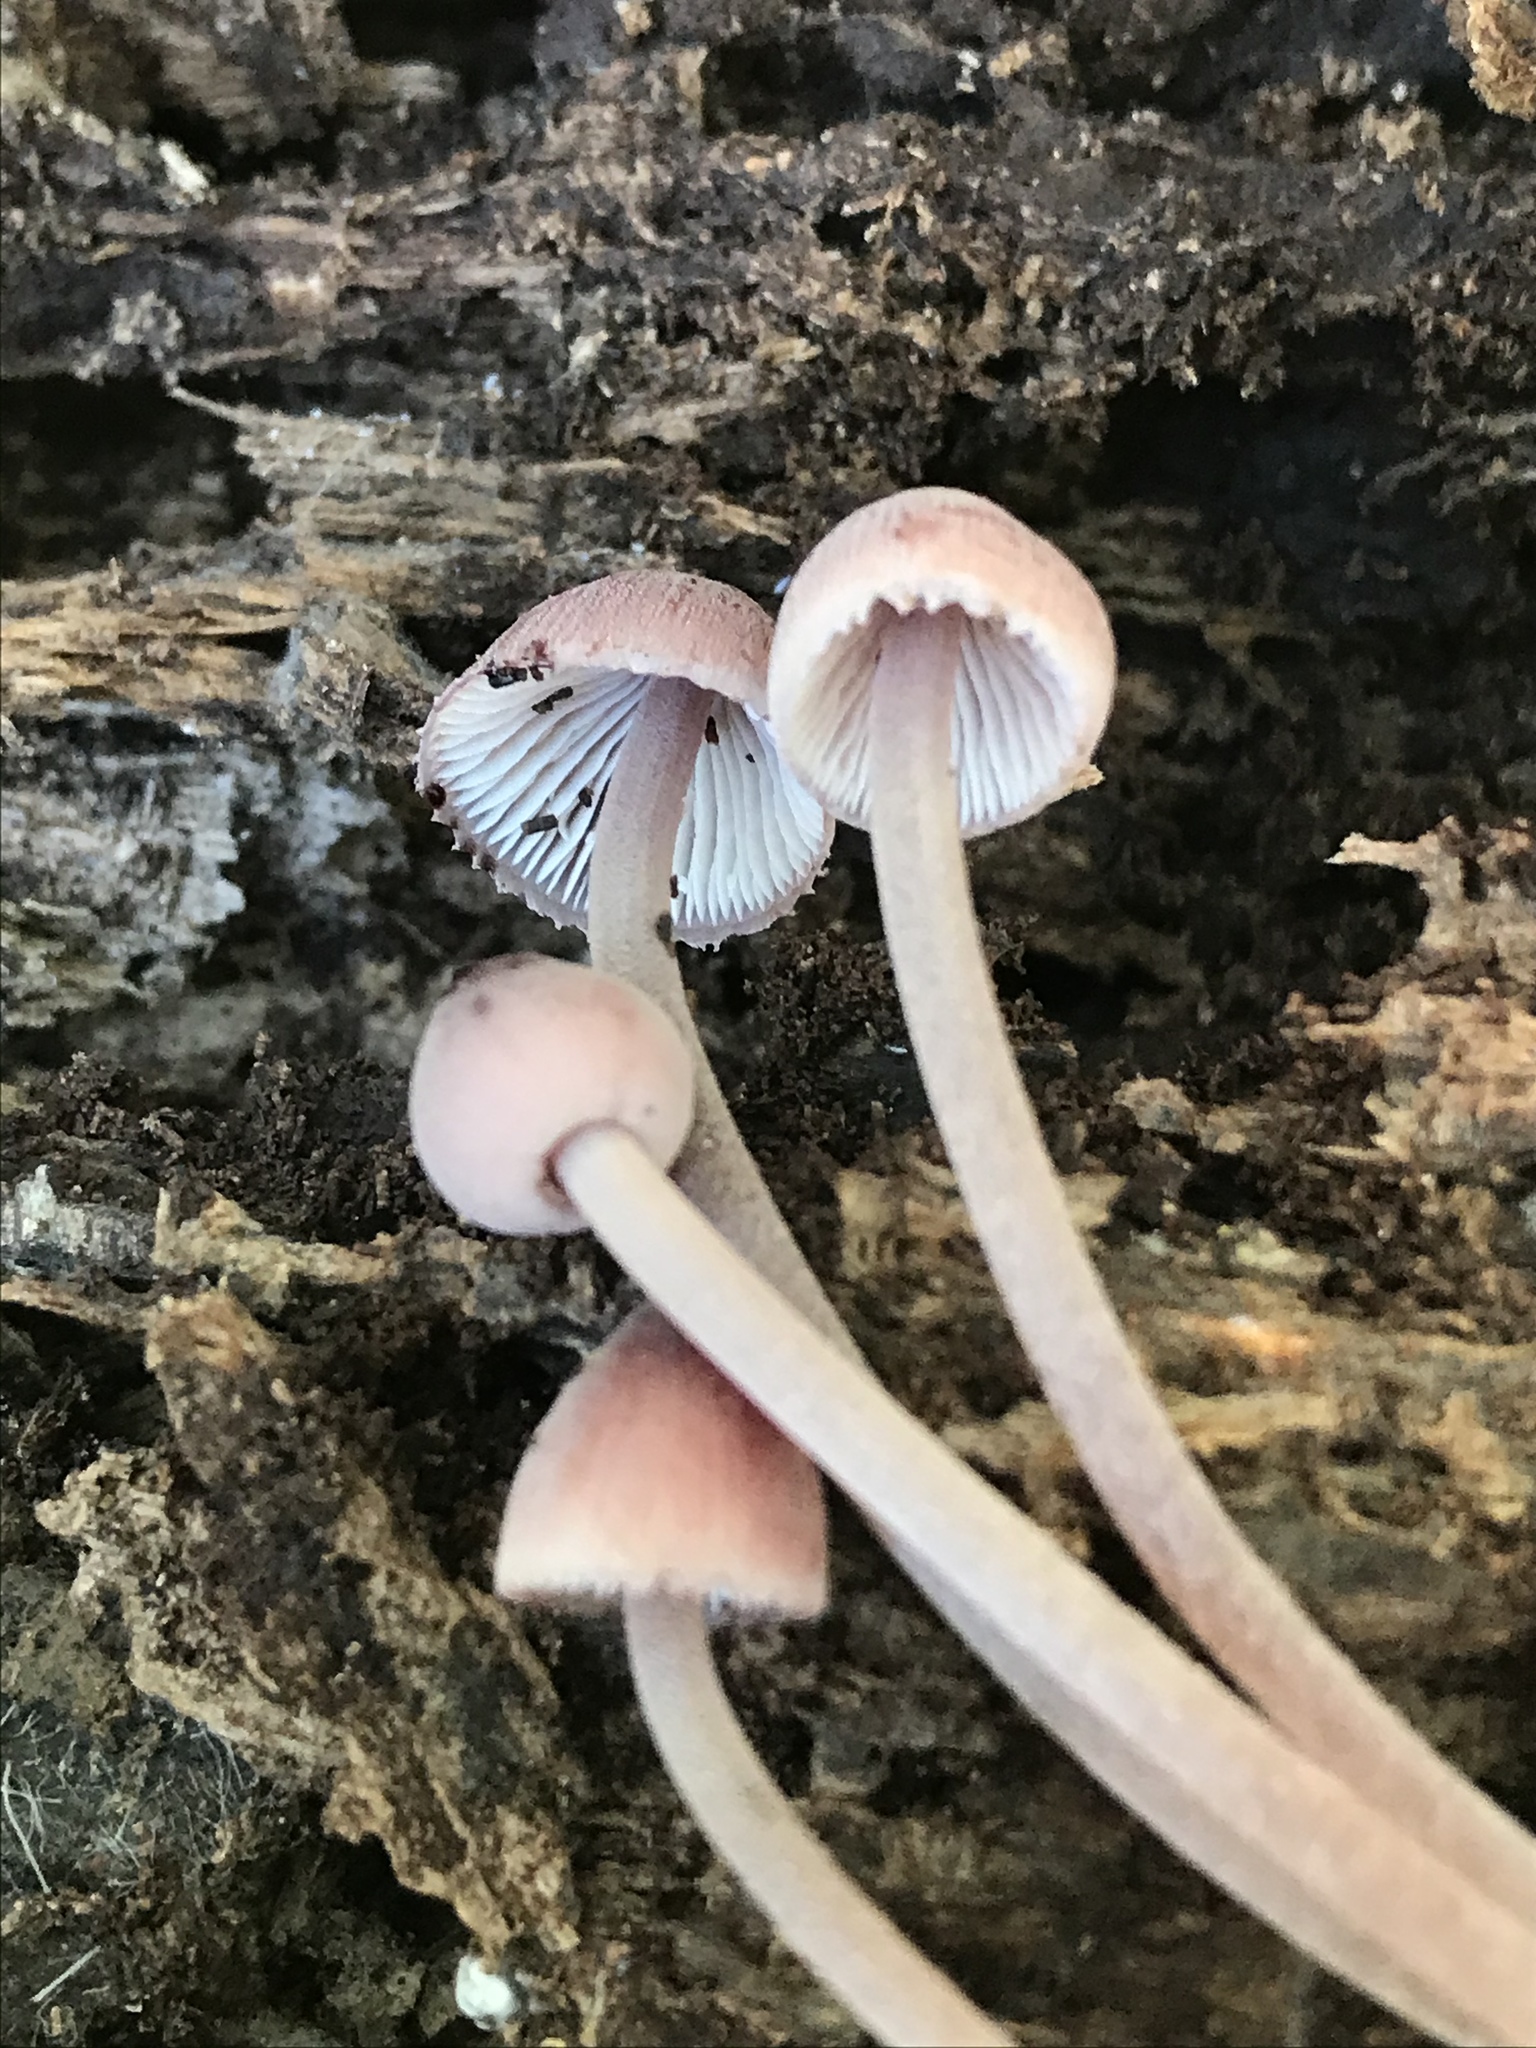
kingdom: Fungi
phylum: Basidiomycota
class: Agaricomycetes
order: Agaricales
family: Mycenaceae
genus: Mycena
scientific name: Mycena haematopus
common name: Burgundydrop bonnet
